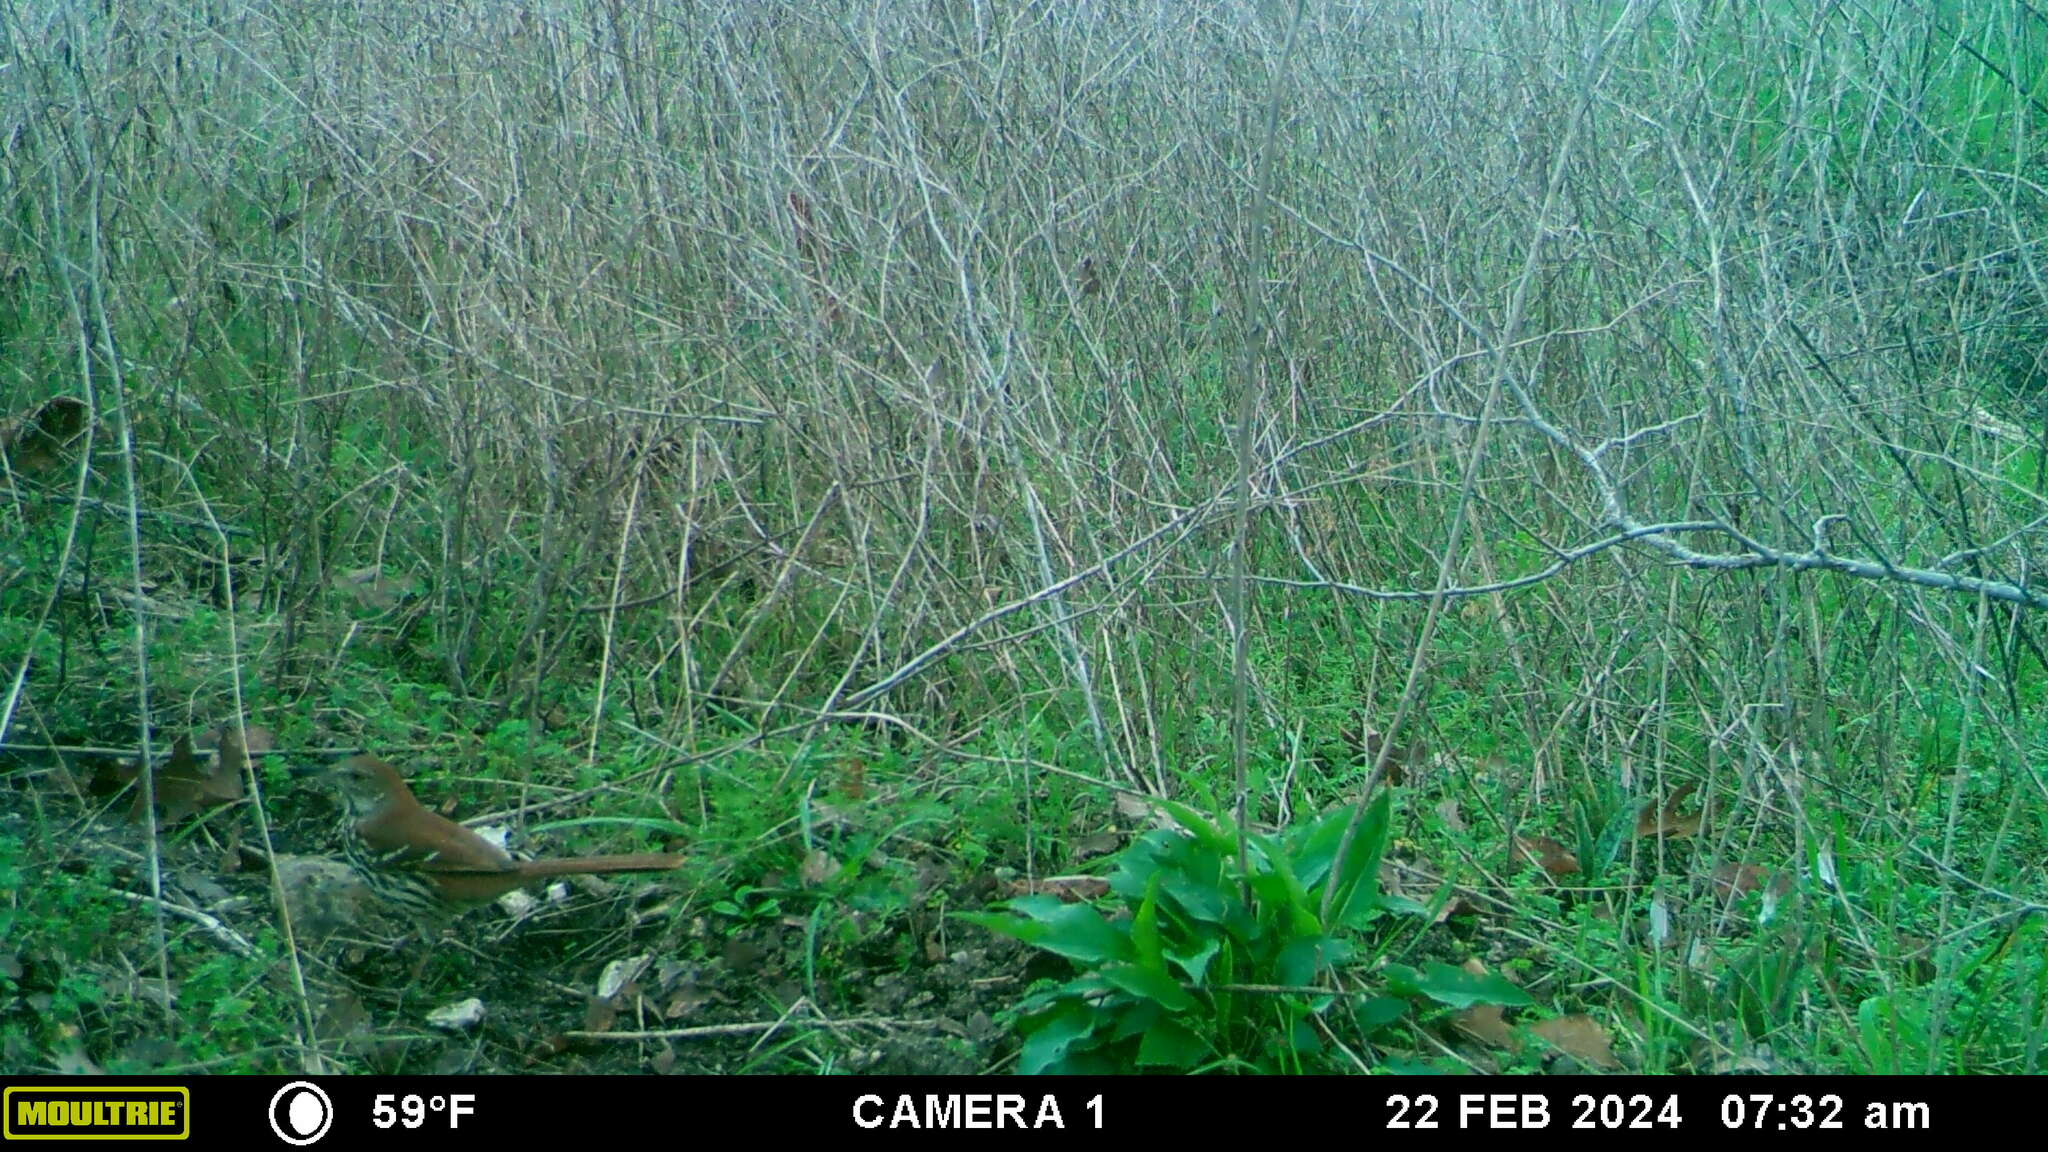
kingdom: Animalia
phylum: Chordata
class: Aves
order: Passeriformes
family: Mimidae
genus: Toxostoma
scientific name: Toxostoma rufum
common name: Brown thrasher
